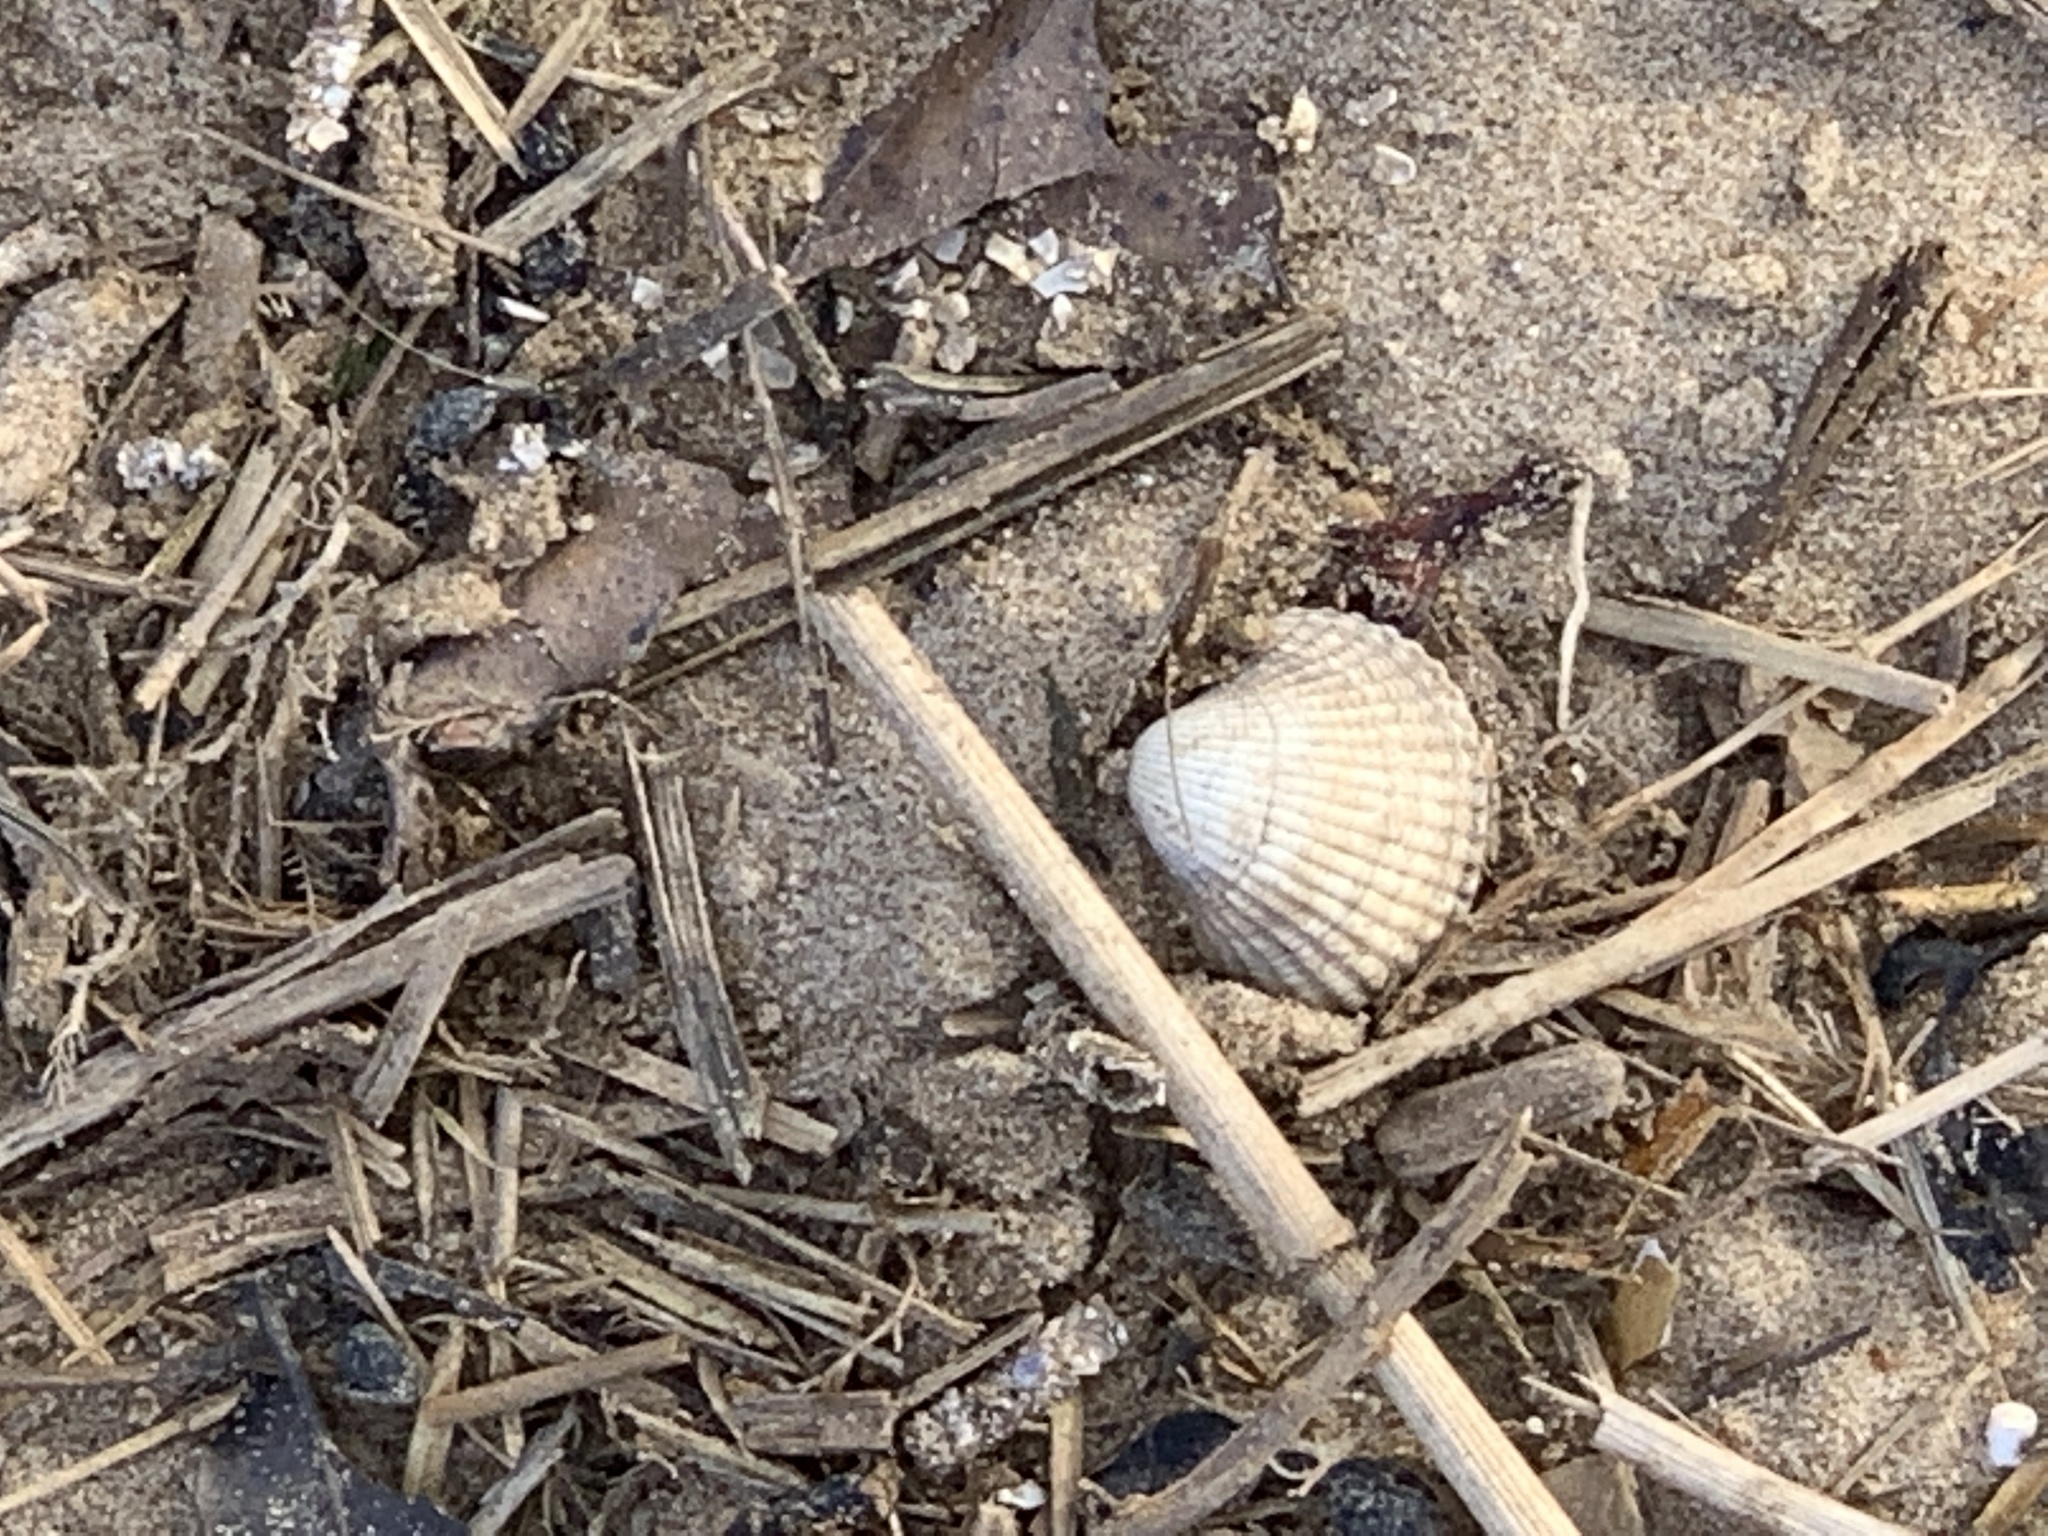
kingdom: Animalia
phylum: Mollusca
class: Bivalvia
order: Cardiida
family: Cardiidae
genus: Cerastoderma
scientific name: Cerastoderma edule
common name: Common cockle
